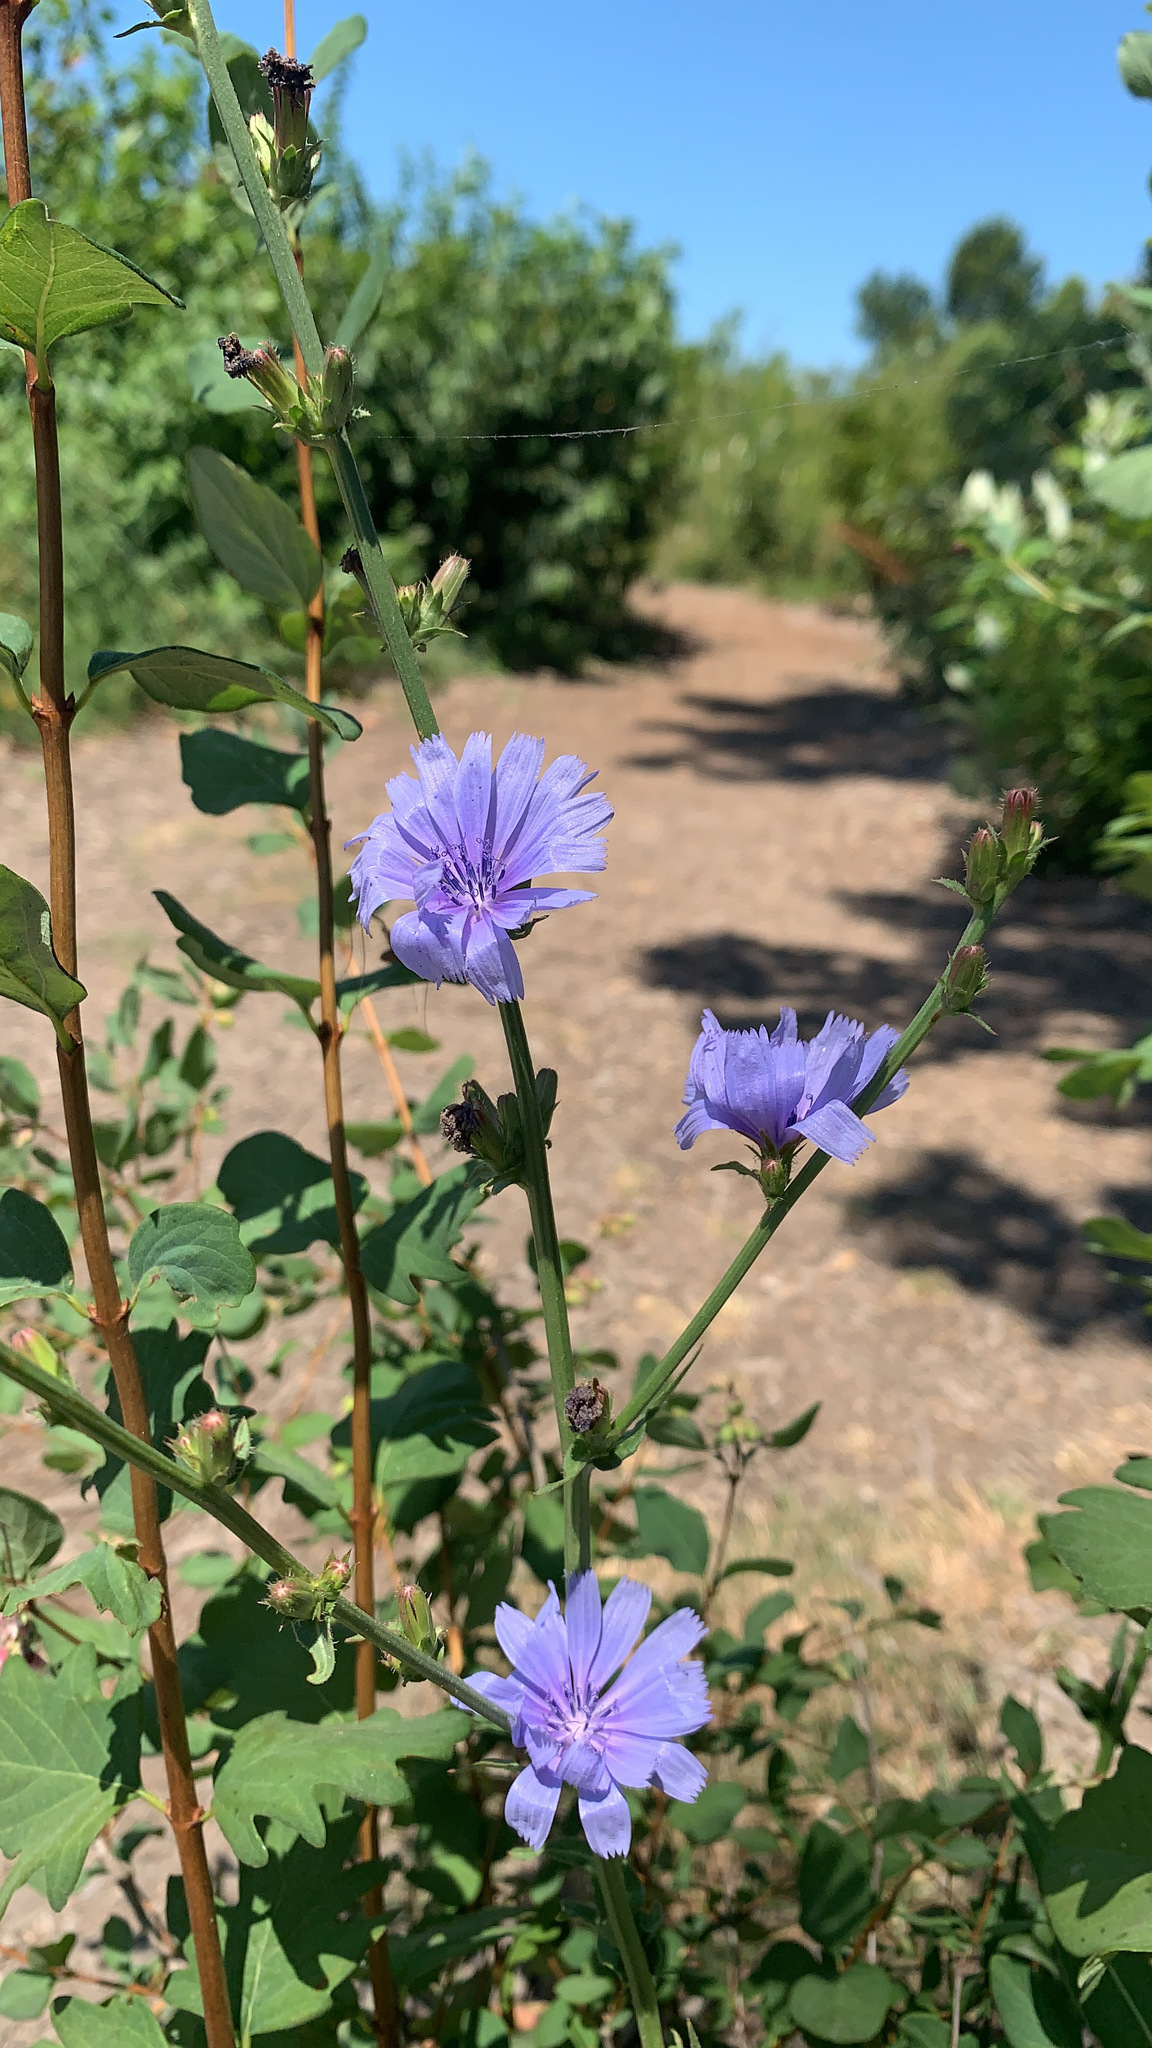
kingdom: Plantae
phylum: Tracheophyta
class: Magnoliopsida
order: Asterales
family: Asteraceae
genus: Cichorium
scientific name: Cichorium intybus
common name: Chicory
